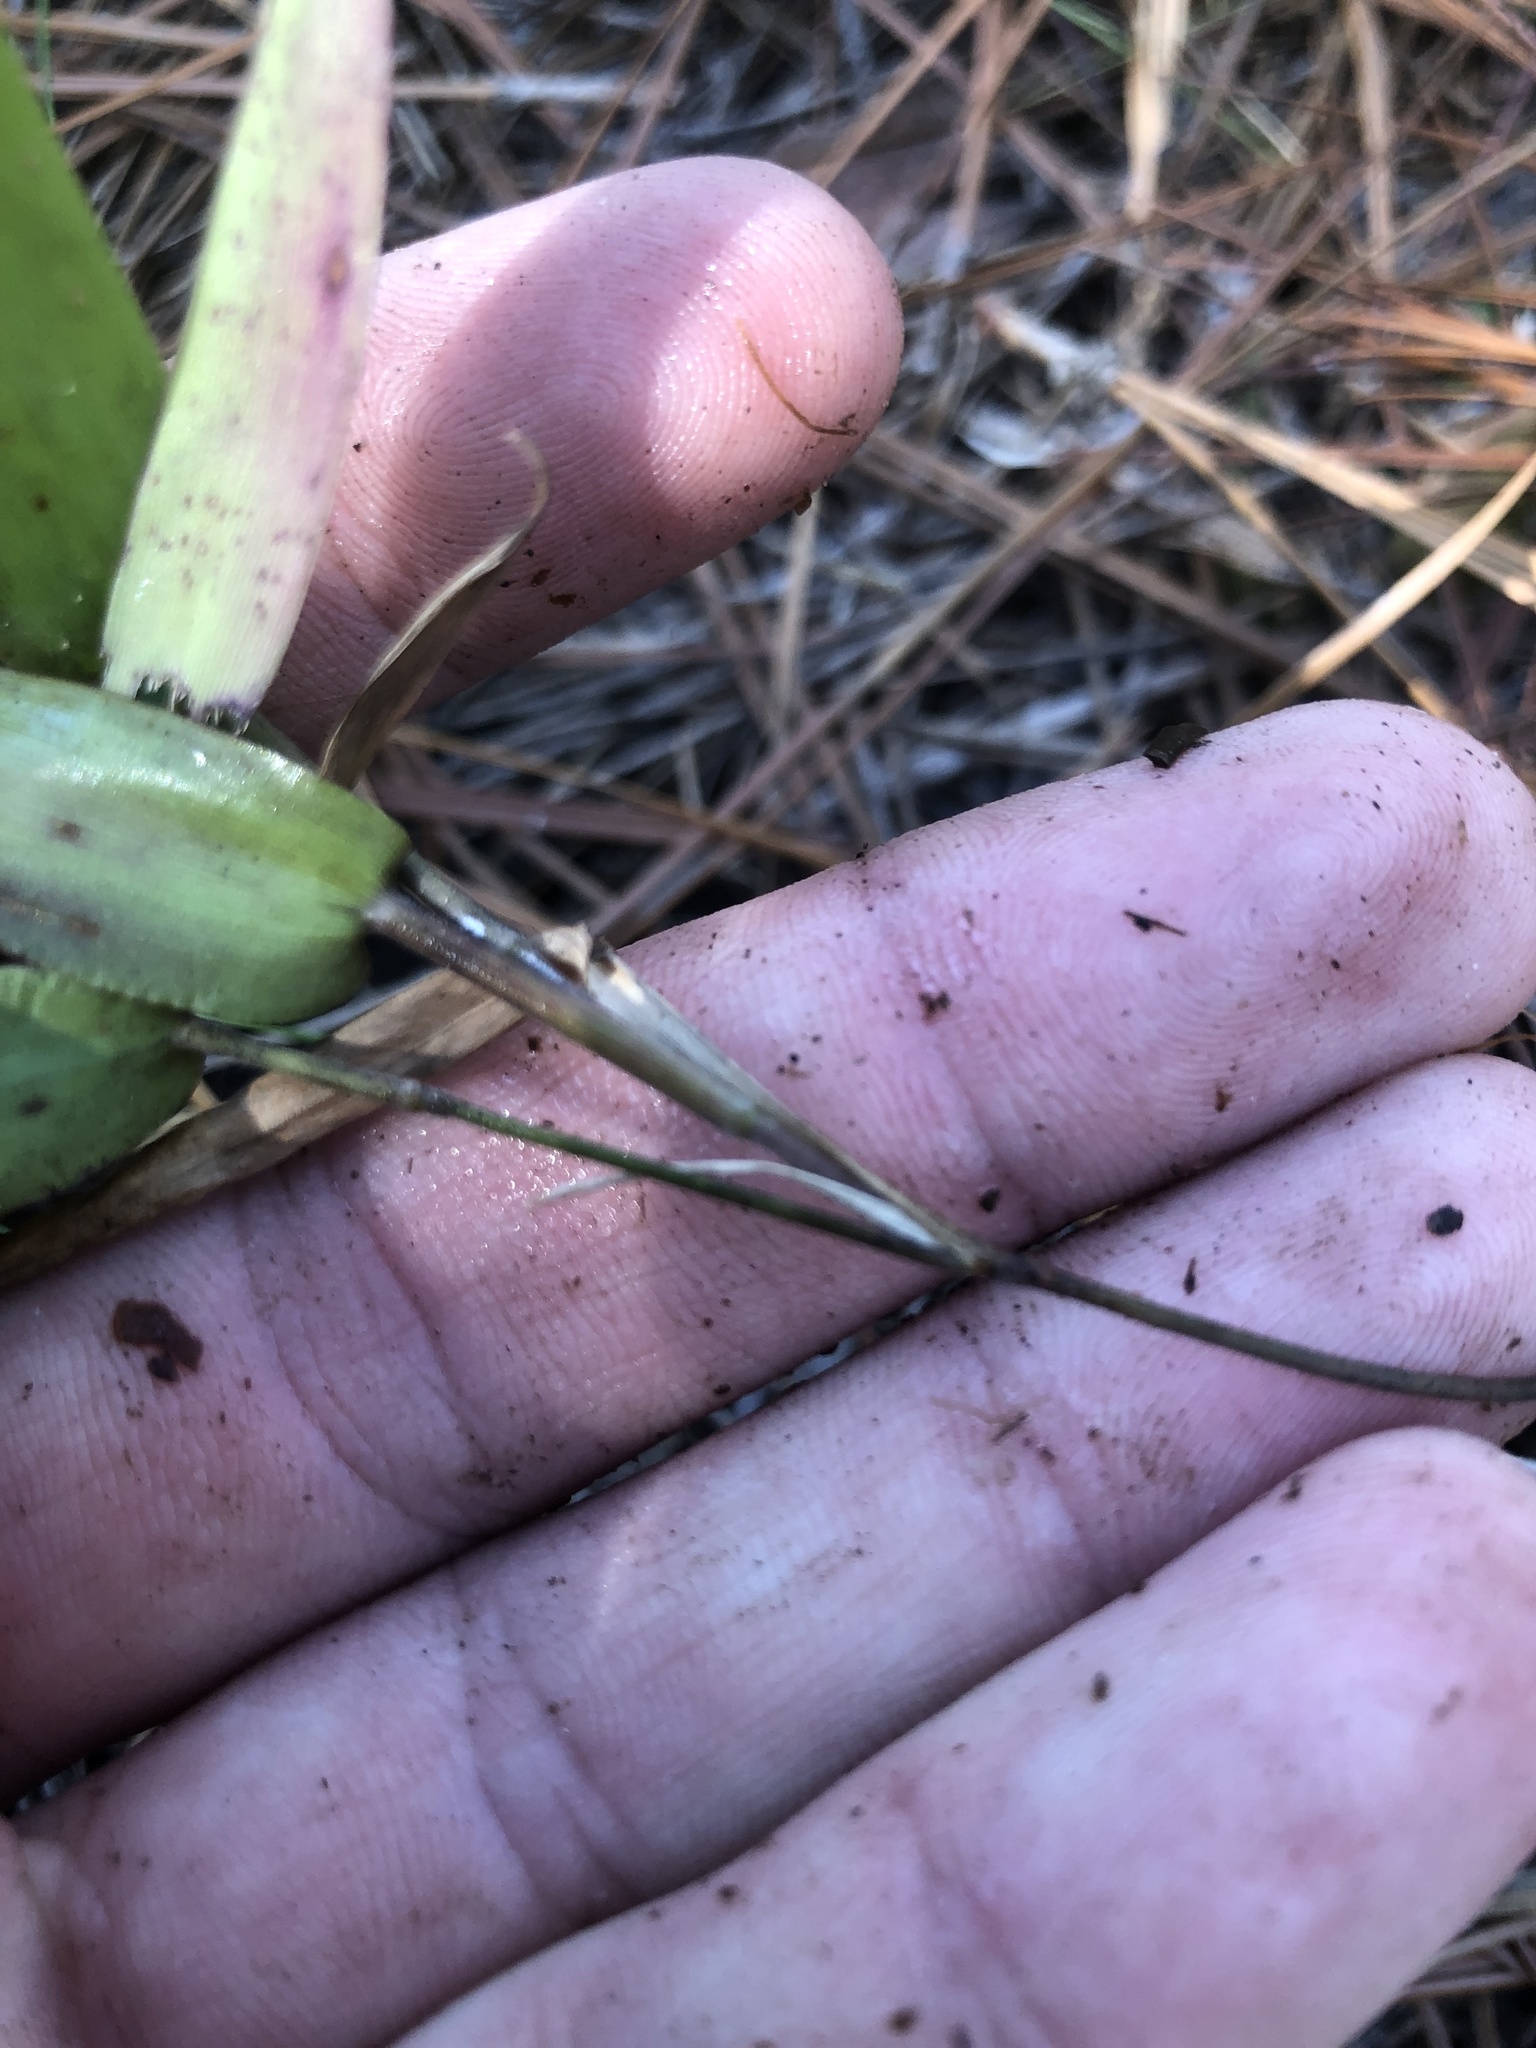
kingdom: Plantae
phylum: Tracheophyta
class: Liliopsida
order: Poales
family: Poaceae
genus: Dichanthelium
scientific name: Dichanthelium commutatum
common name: Variable witchgrass
